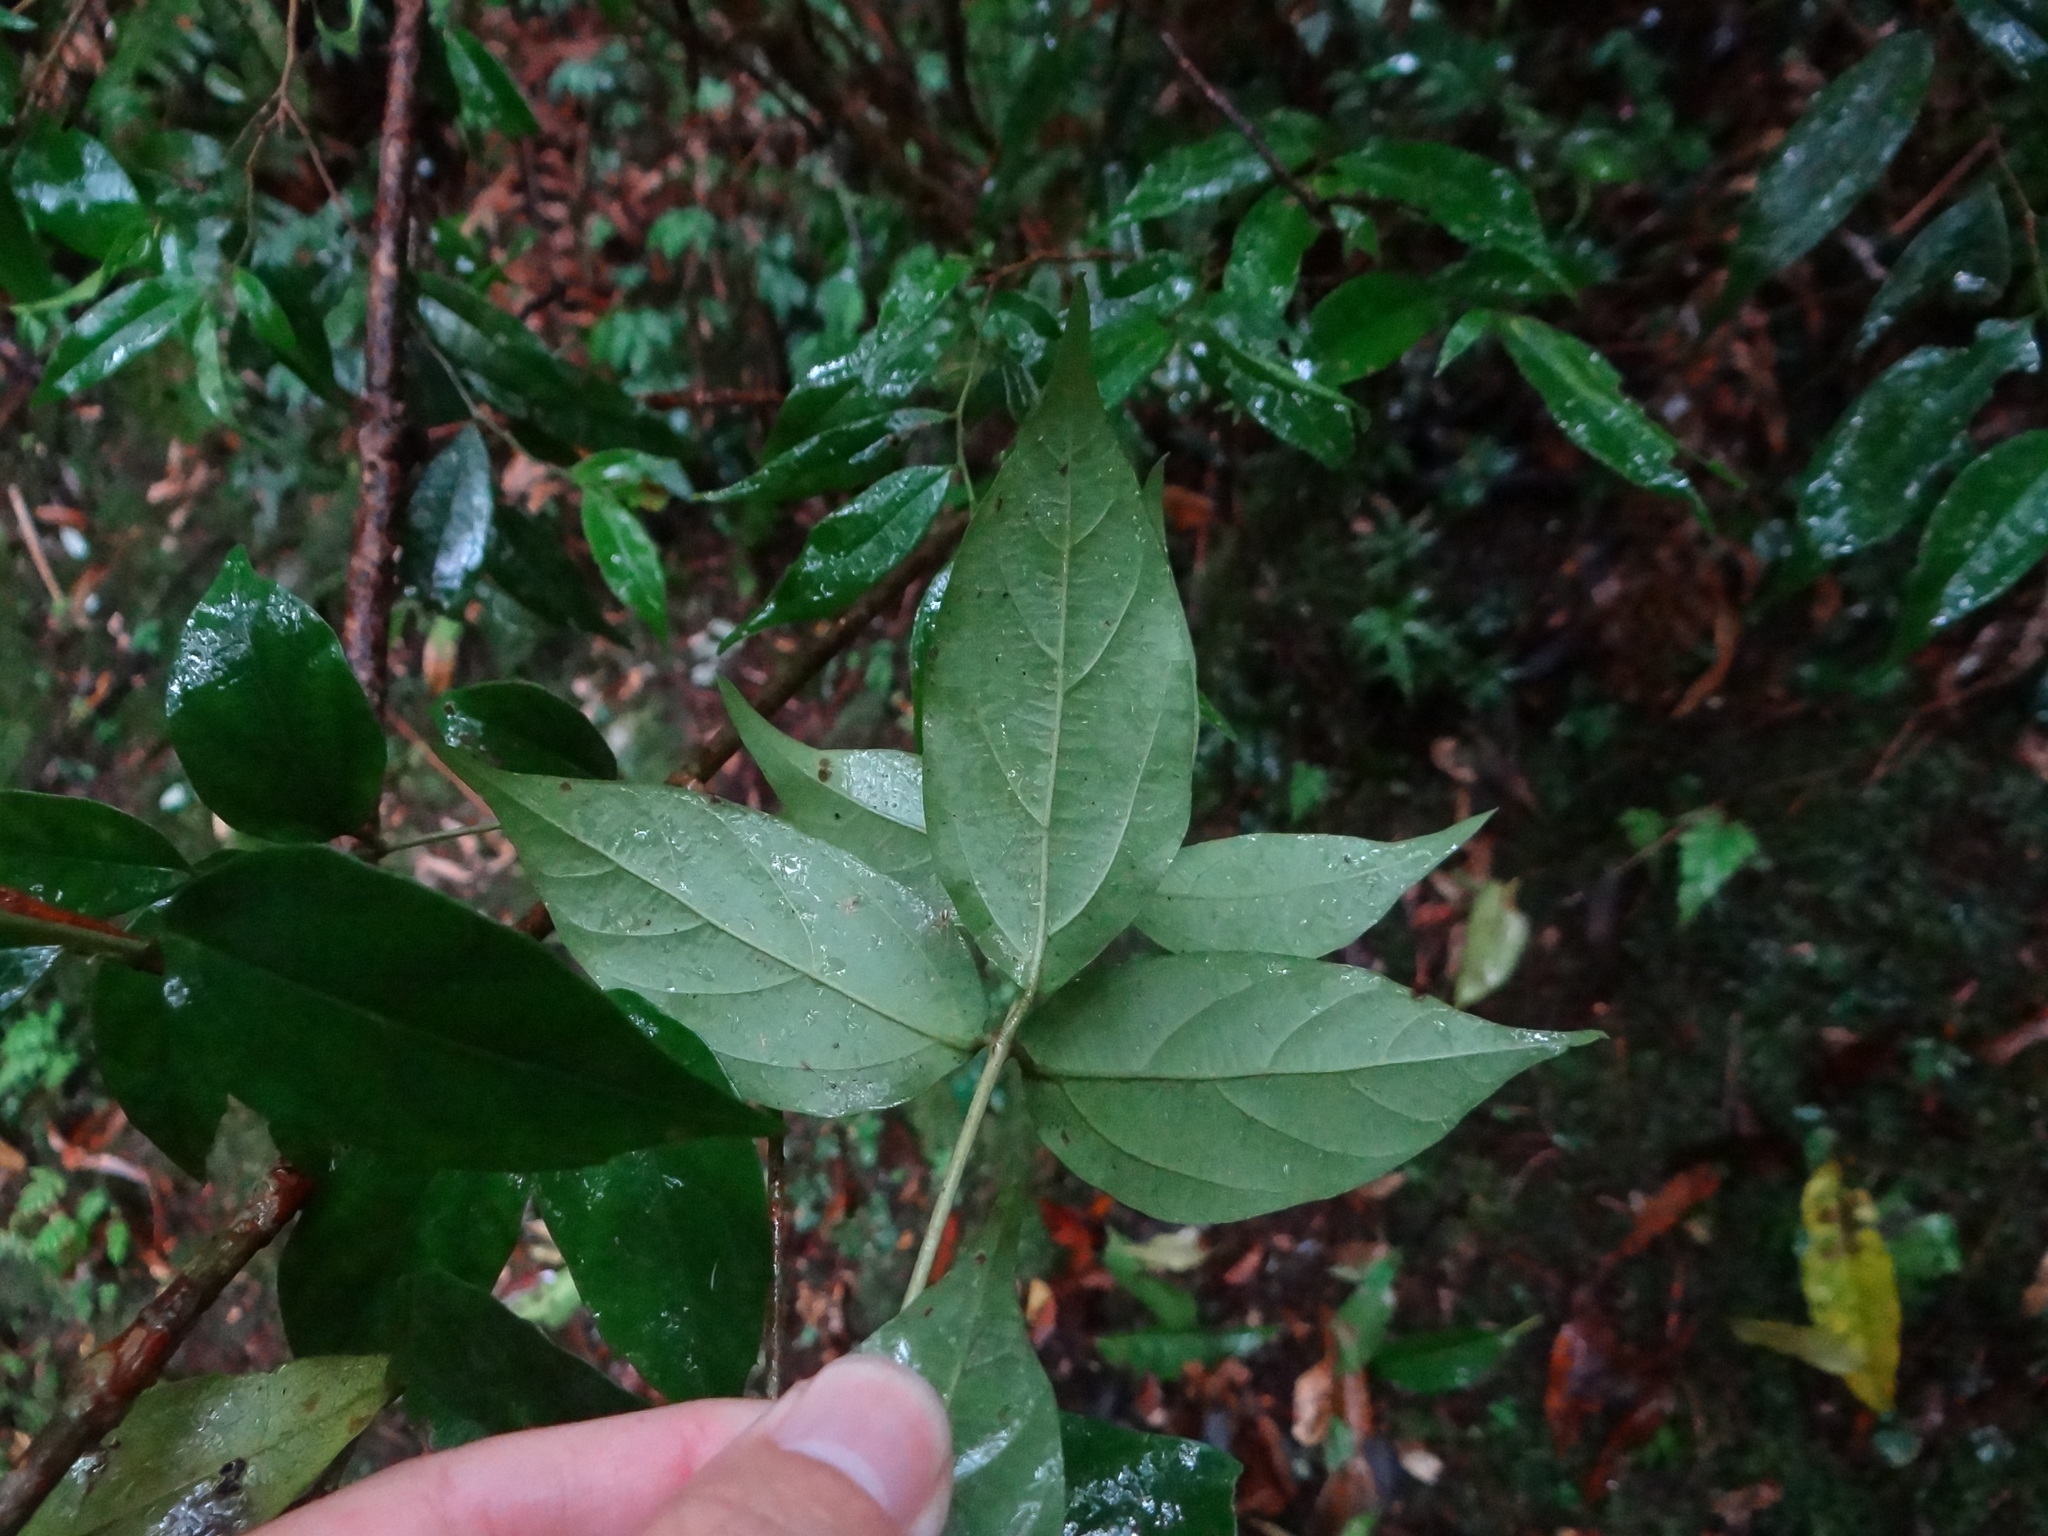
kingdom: Plantae
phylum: Tracheophyta
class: Magnoliopsida
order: Dipsacales
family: Viburnaceae
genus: Viburnum
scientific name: Viburnum integrifolium
